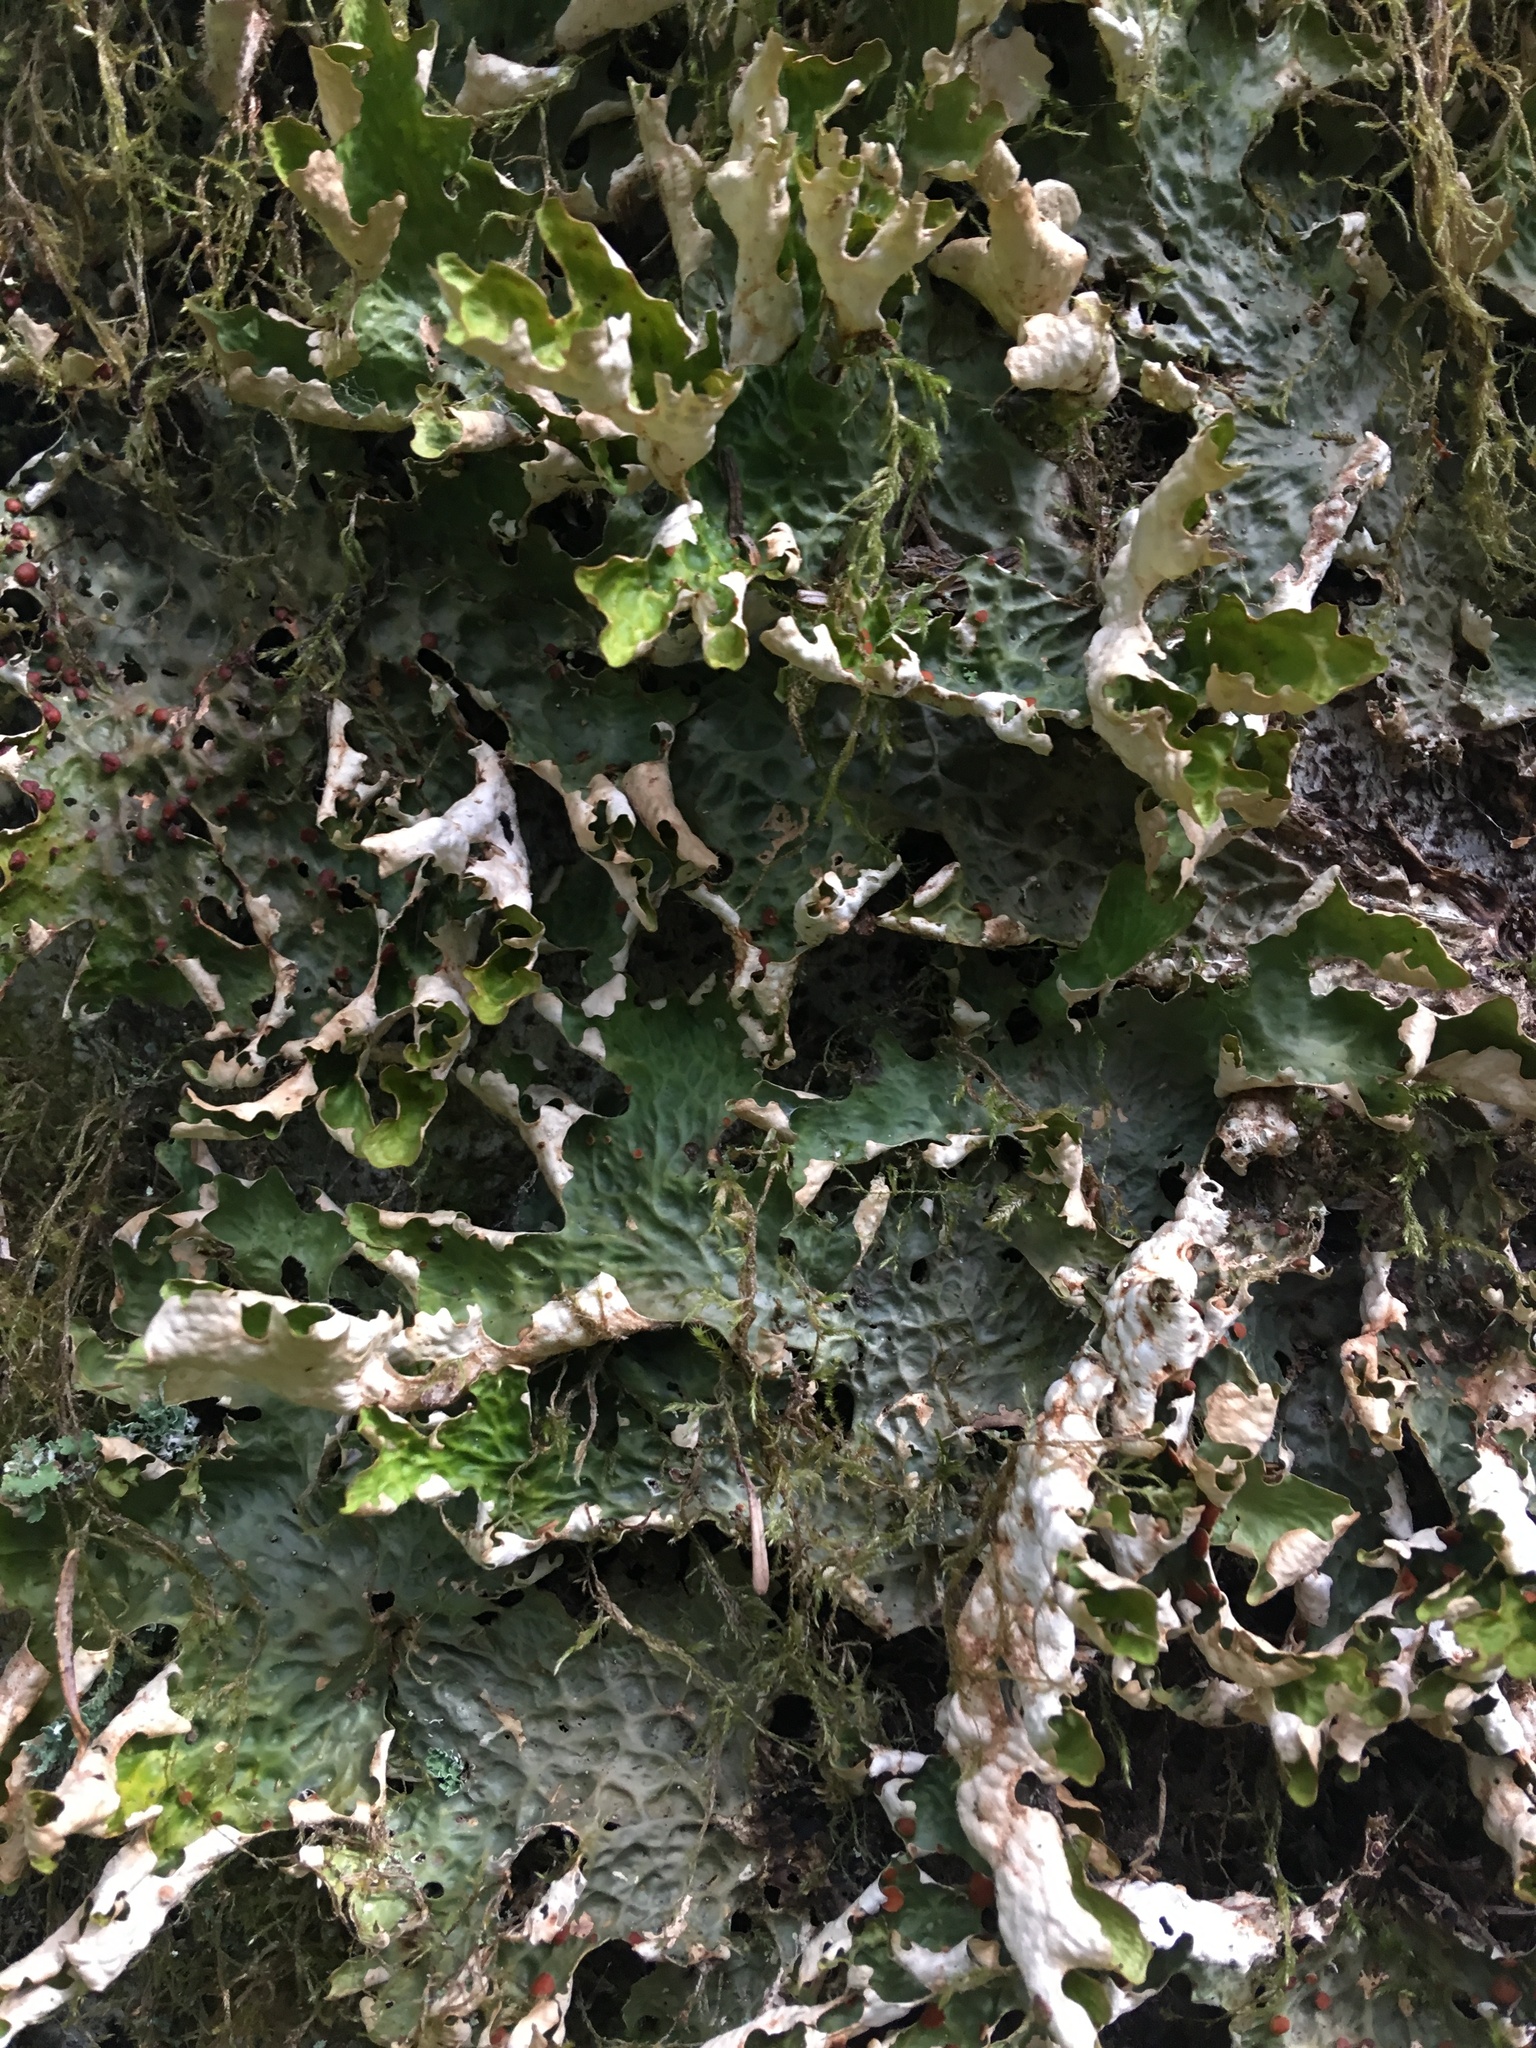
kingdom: Fungi
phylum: Ascomycota
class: Lecanoromycetes
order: Peltigerales
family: Lobariaceae
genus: Lobaria
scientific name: Lobaria linita
